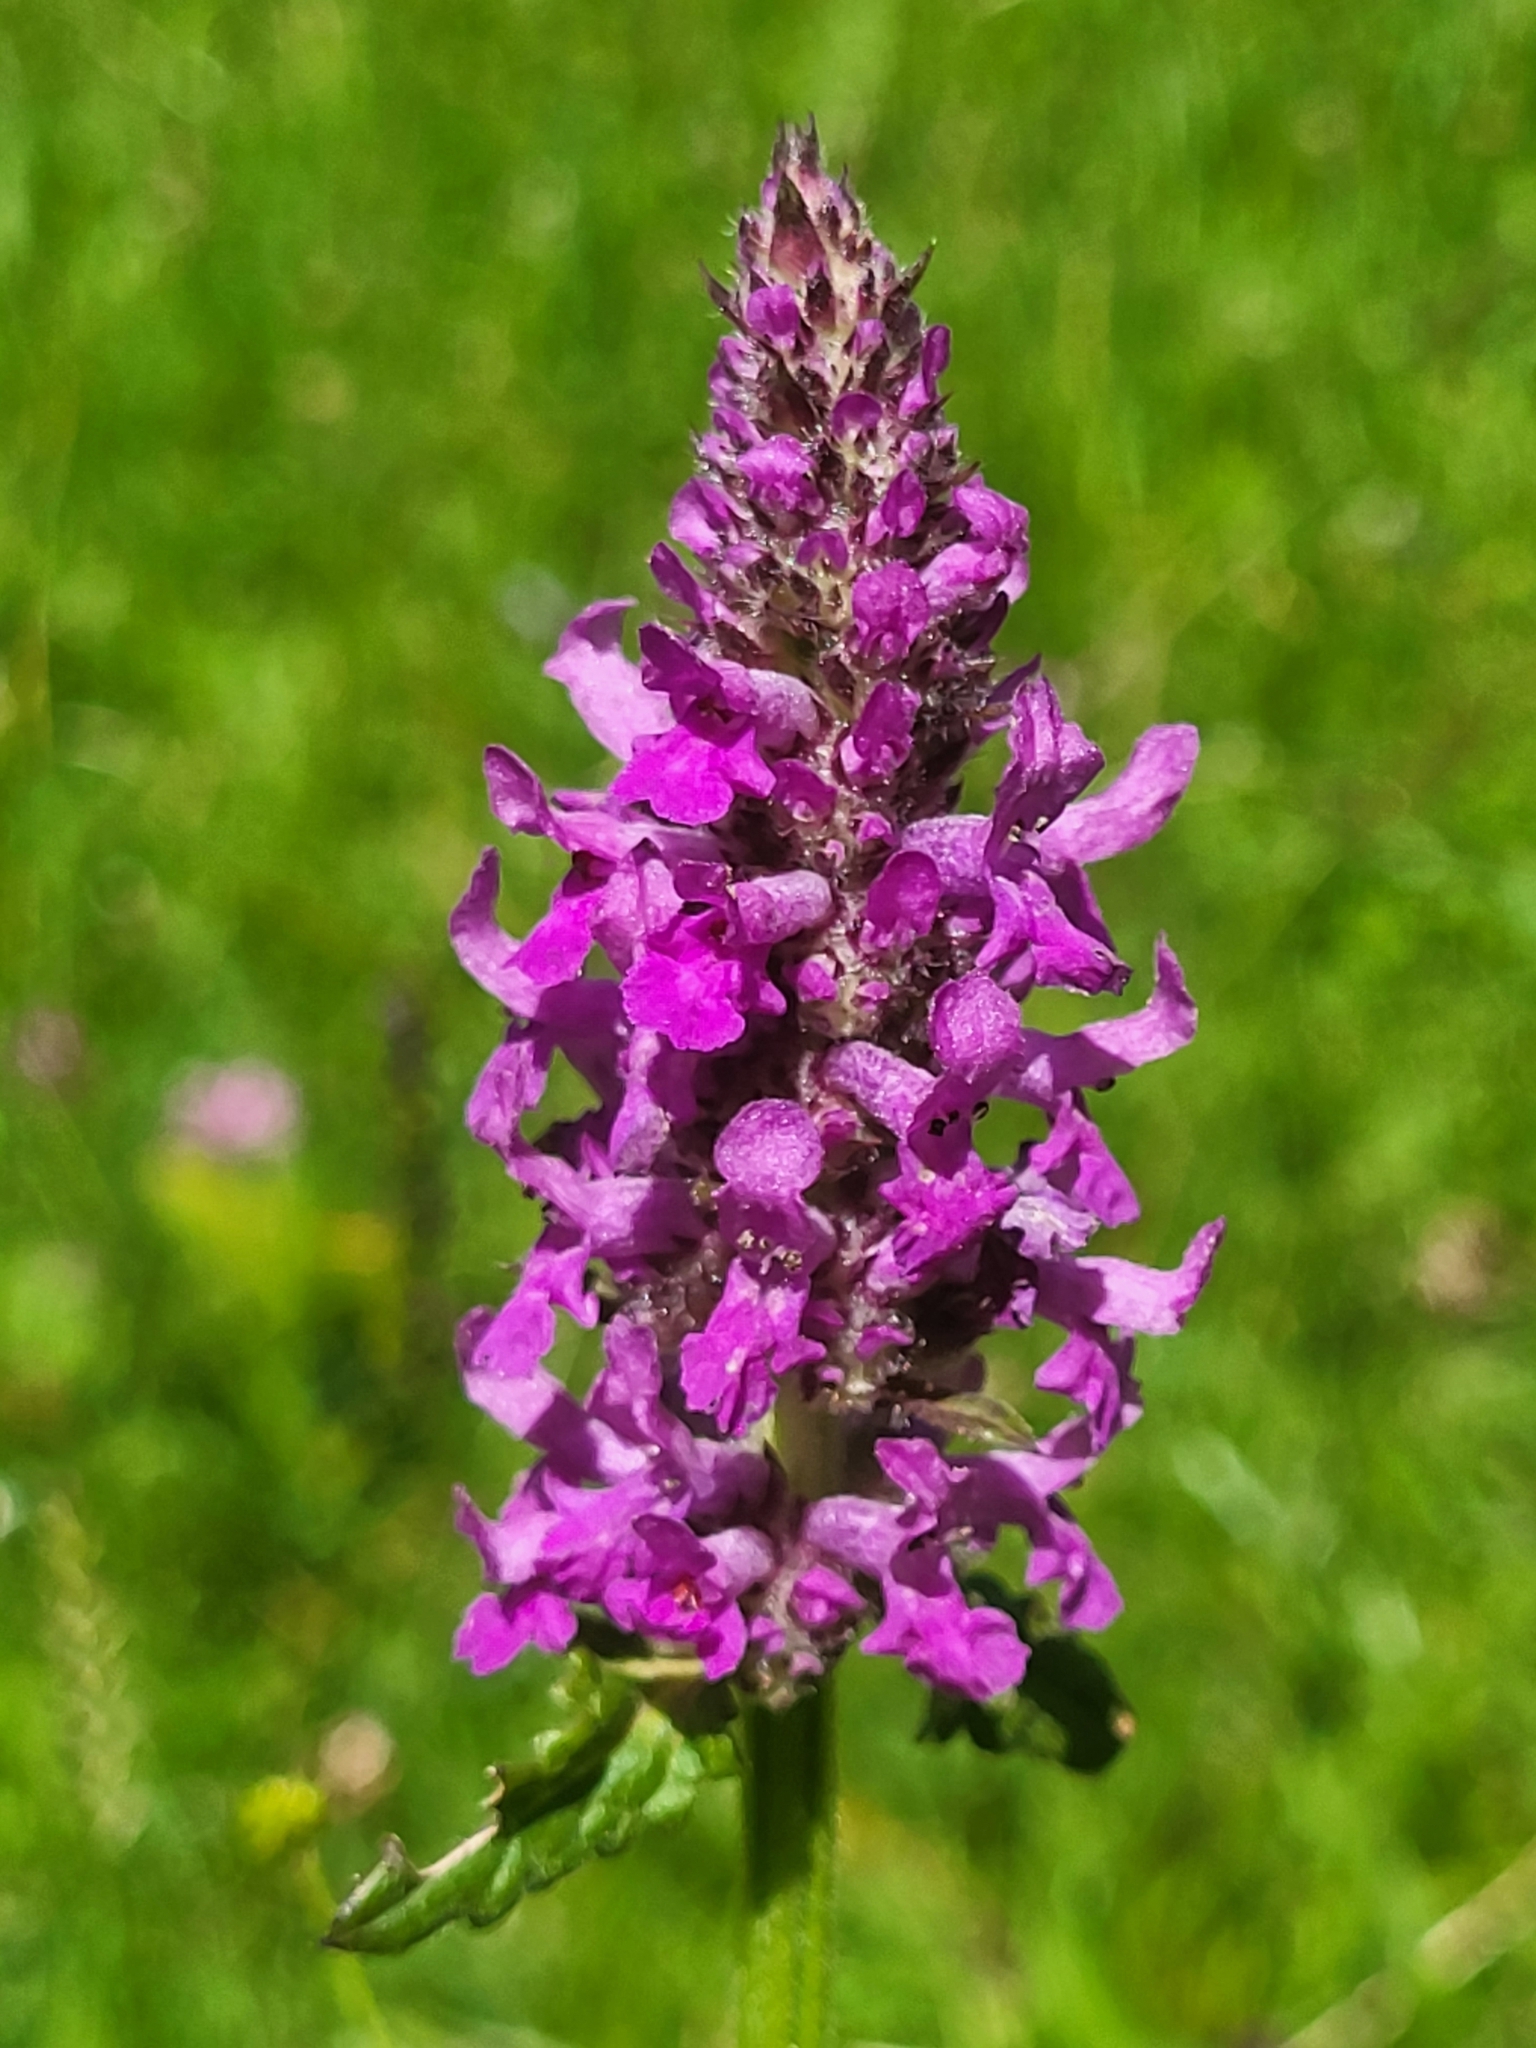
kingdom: Plantae
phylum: Tracheophyta
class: Magnoliopsida
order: Lamiales
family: Lamiaceae
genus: Betonica
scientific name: Betonica officinalis
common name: Bishop's-wort
